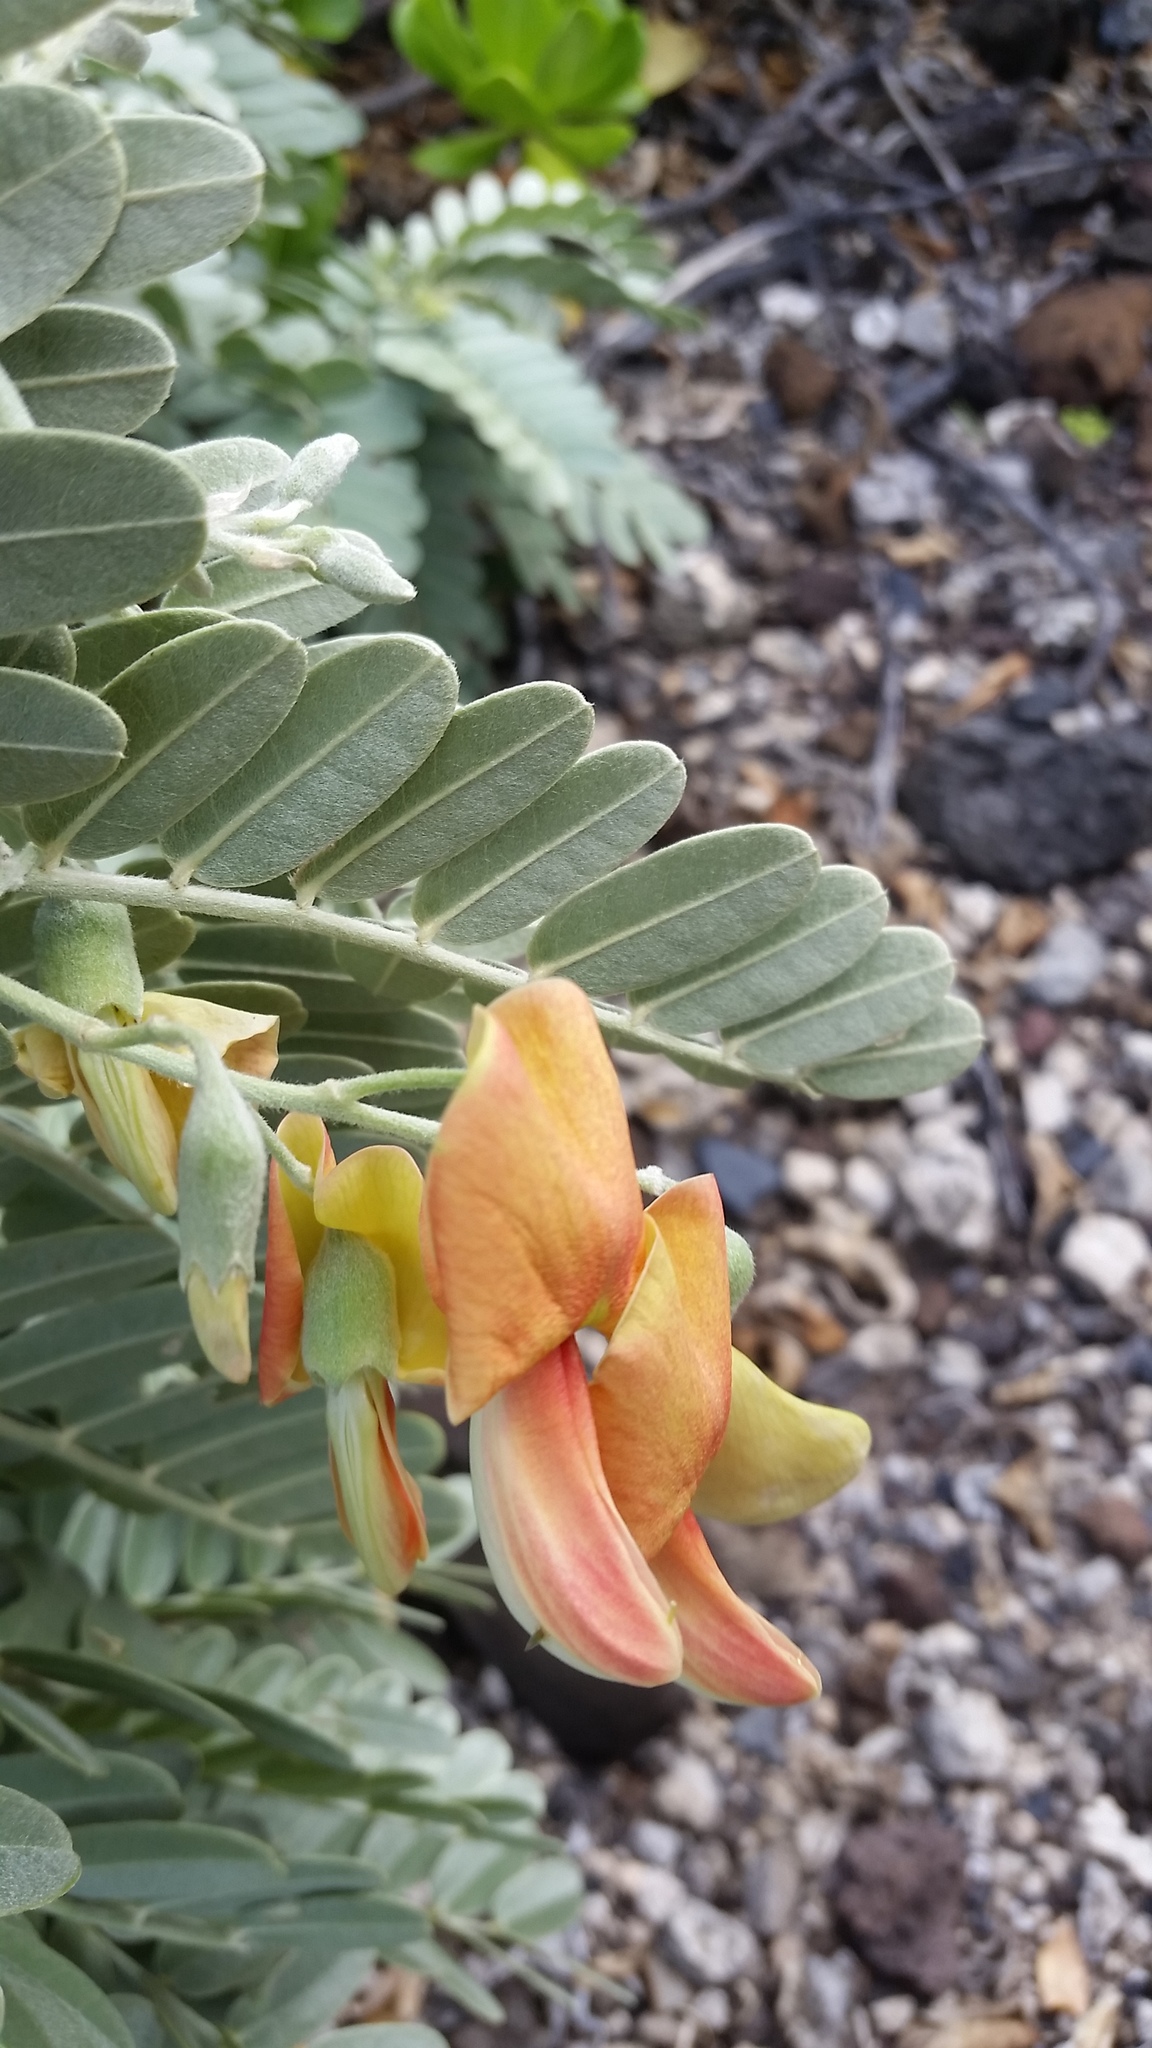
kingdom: Plantae
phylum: Tracheophyta
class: Magnoliopsida
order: Fabales
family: Fabaceae
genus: Sesbania
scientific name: Sesbania tomentosa
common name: `ohai
